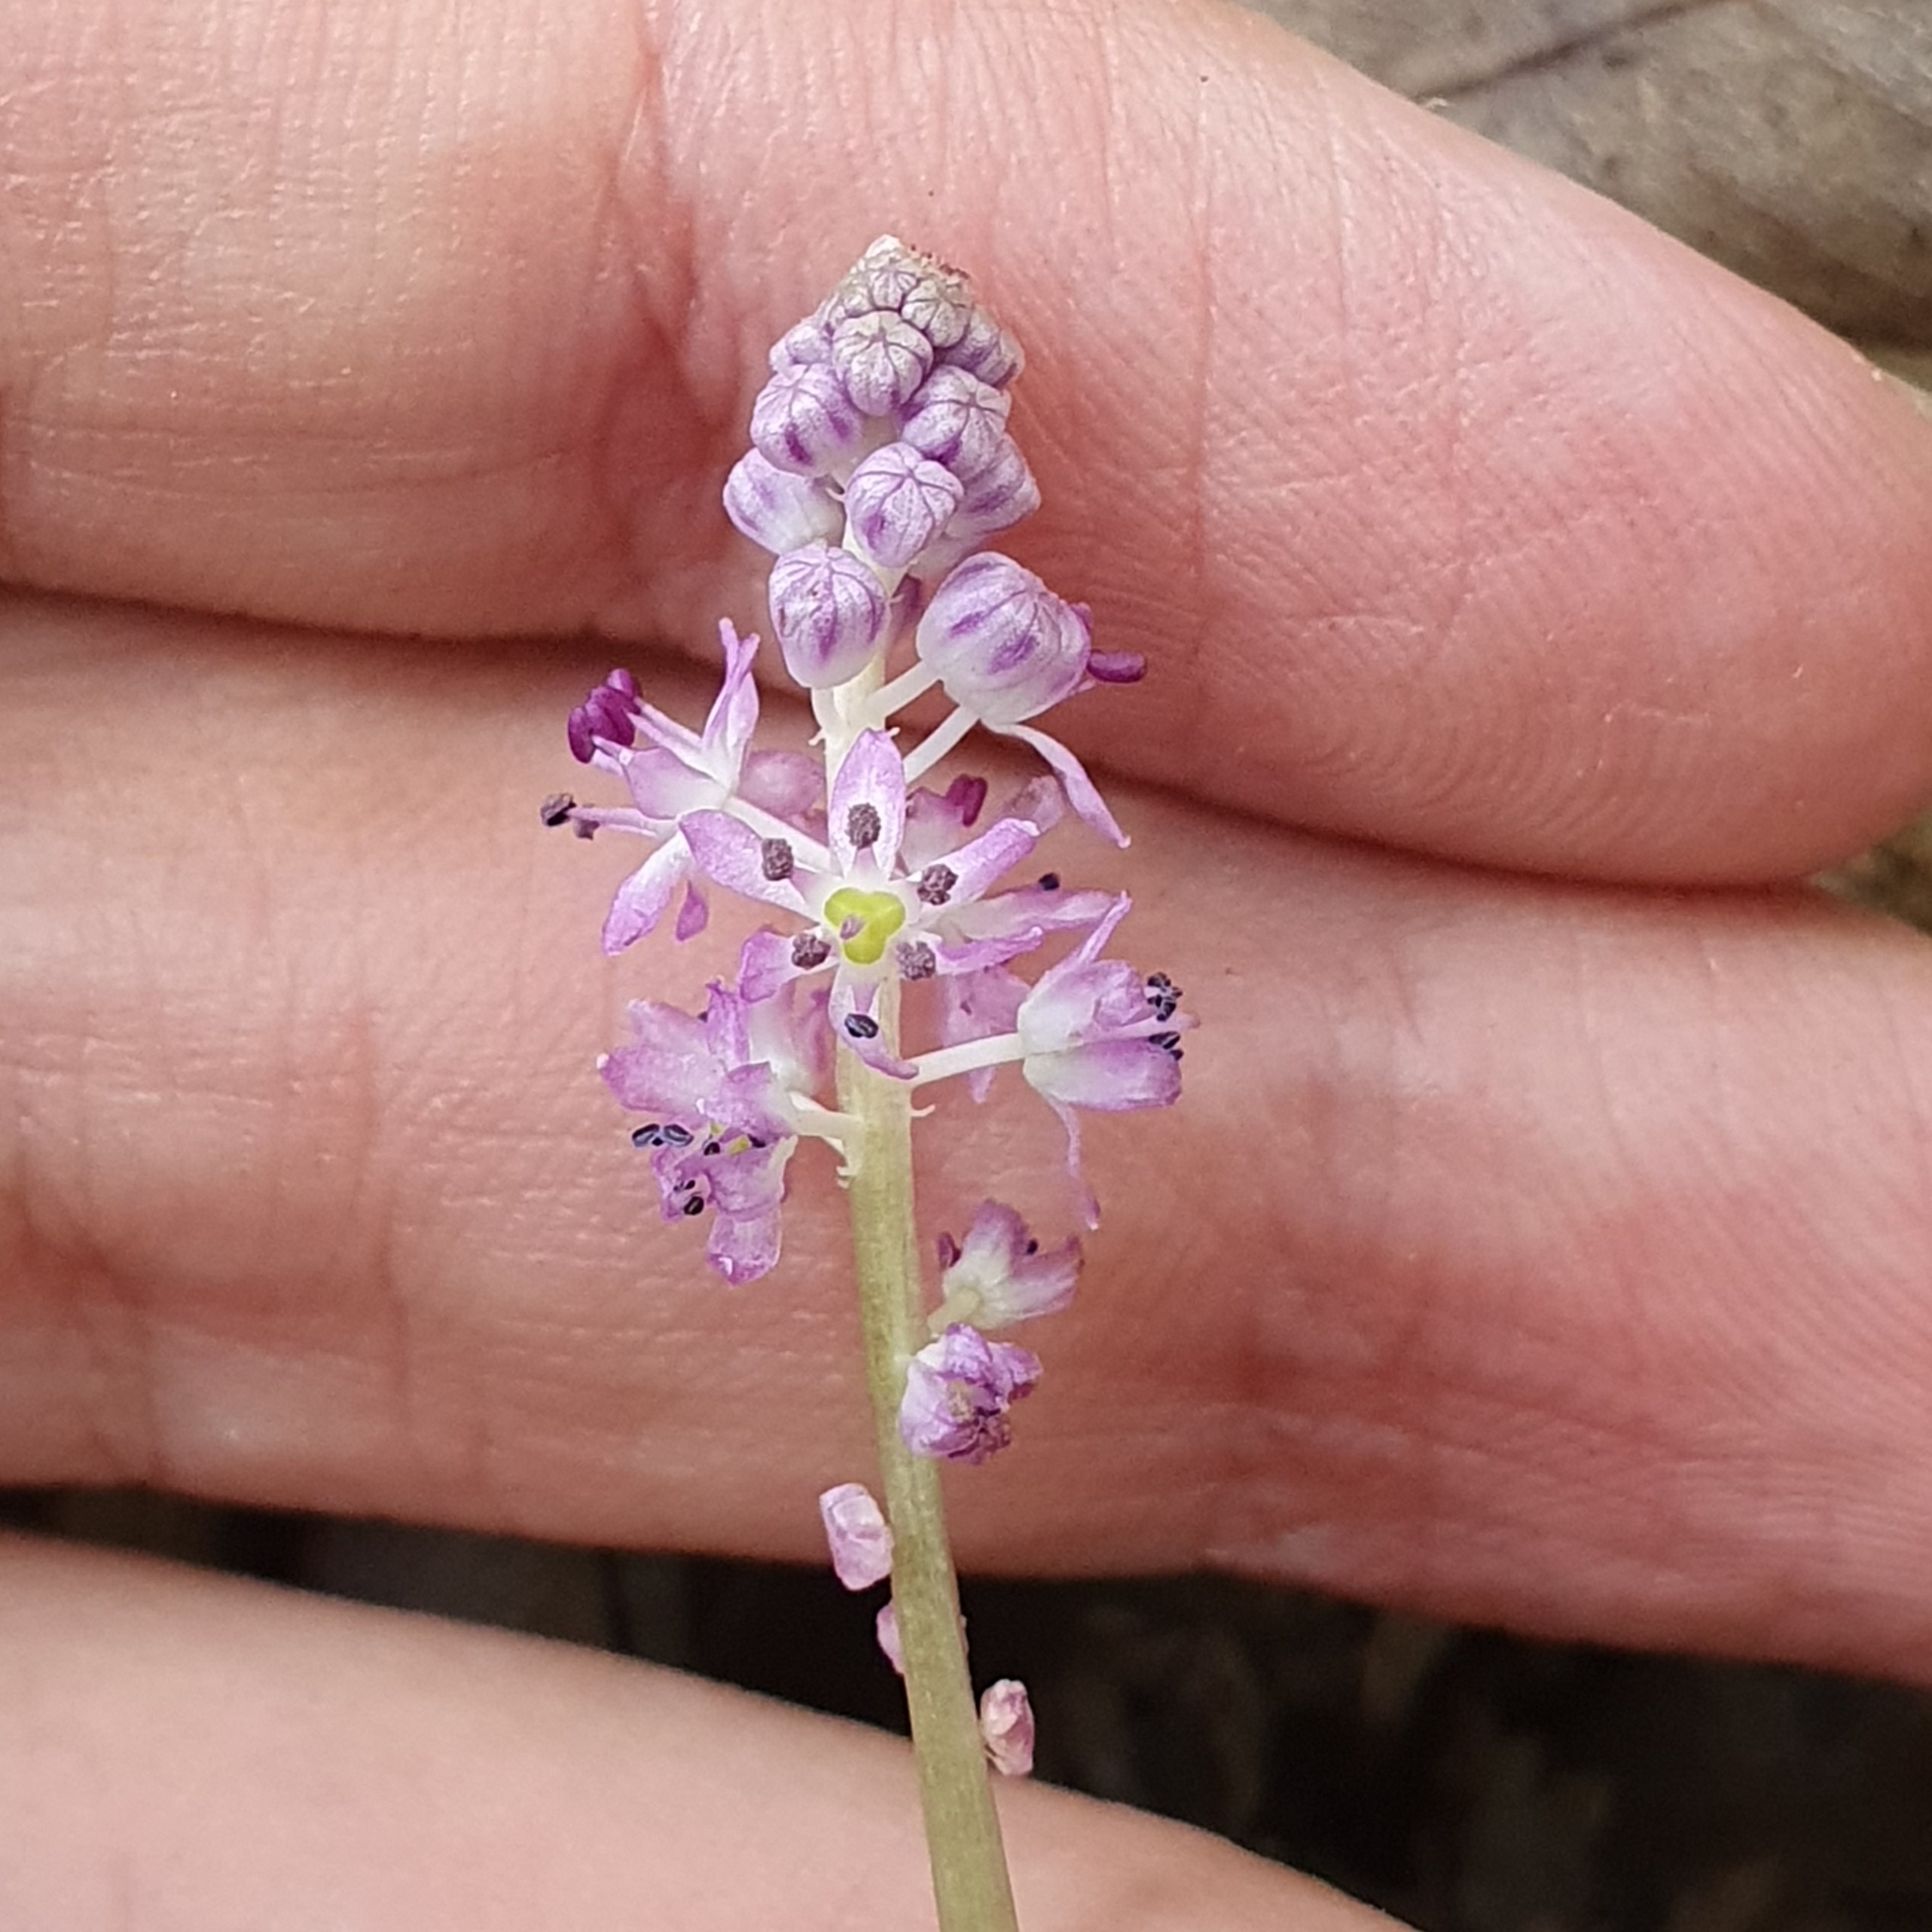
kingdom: Plantae
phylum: Tracheophyta
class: Liliopsida
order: Asparagales
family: Asparagaceae
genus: Barnardia
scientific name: Barnardia numidica
